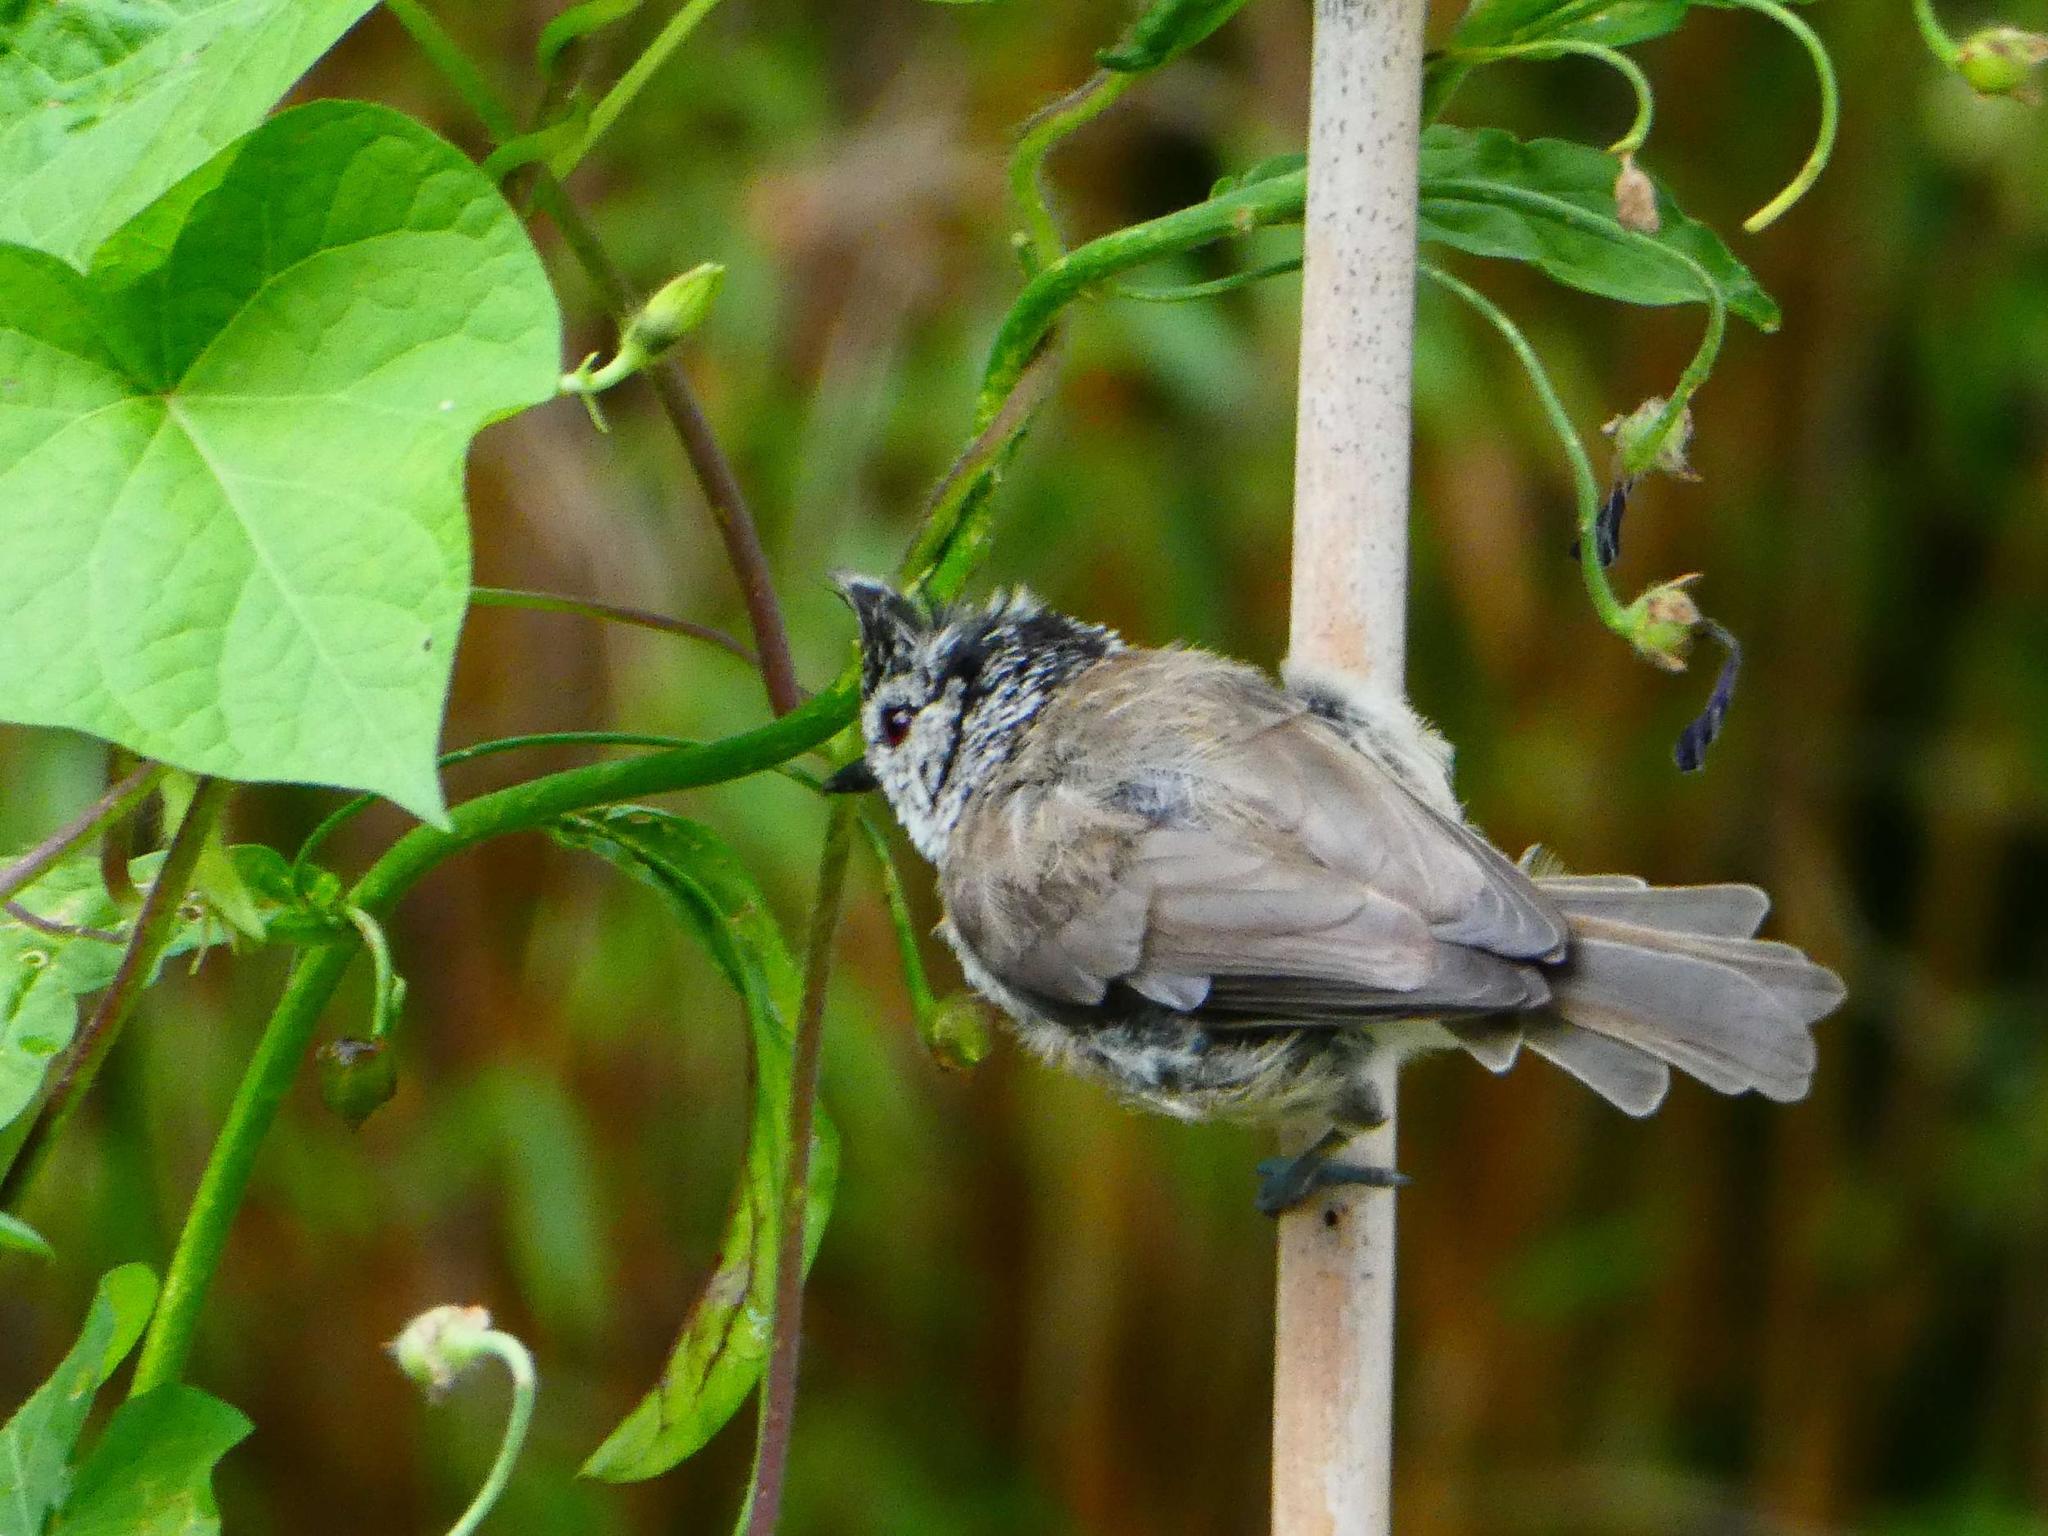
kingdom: Animalia
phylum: Chordata
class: Aves
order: Passeriformes
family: Paridae
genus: Lophophanes
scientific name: Lophophanes cristatus
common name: European crested tit
